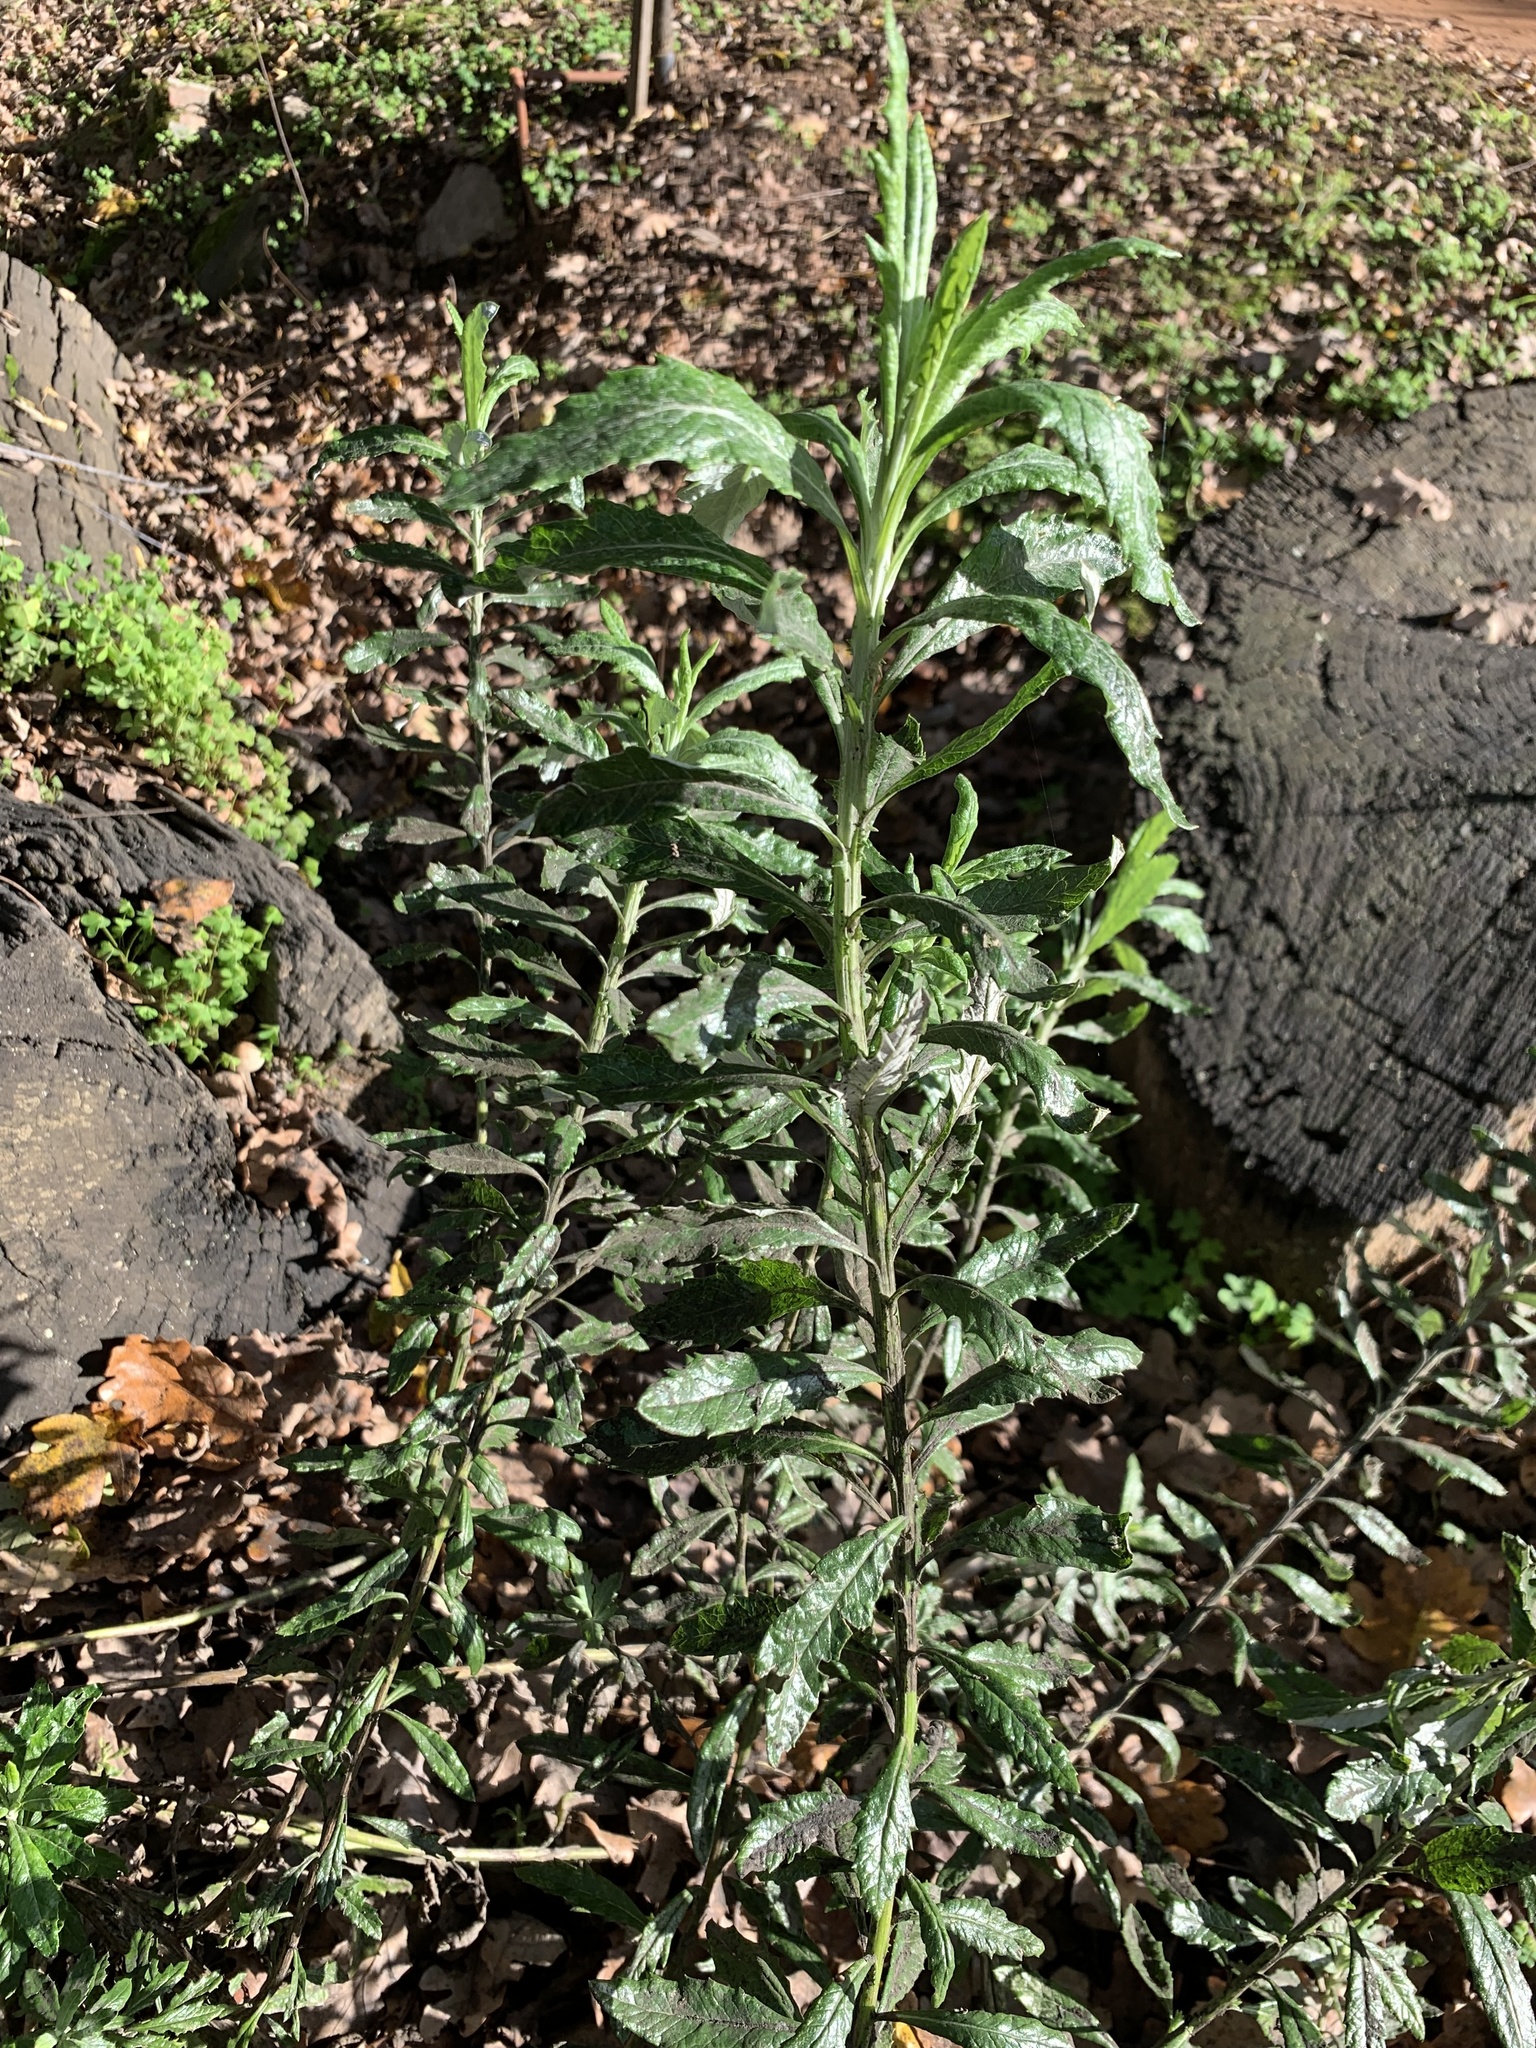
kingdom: Plantae
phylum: Tracheophyta
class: Magnoliopsida
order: Asterales
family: Asteraceae
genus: Senecio
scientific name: Senecio pterophorus
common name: Shoddy ragwort
